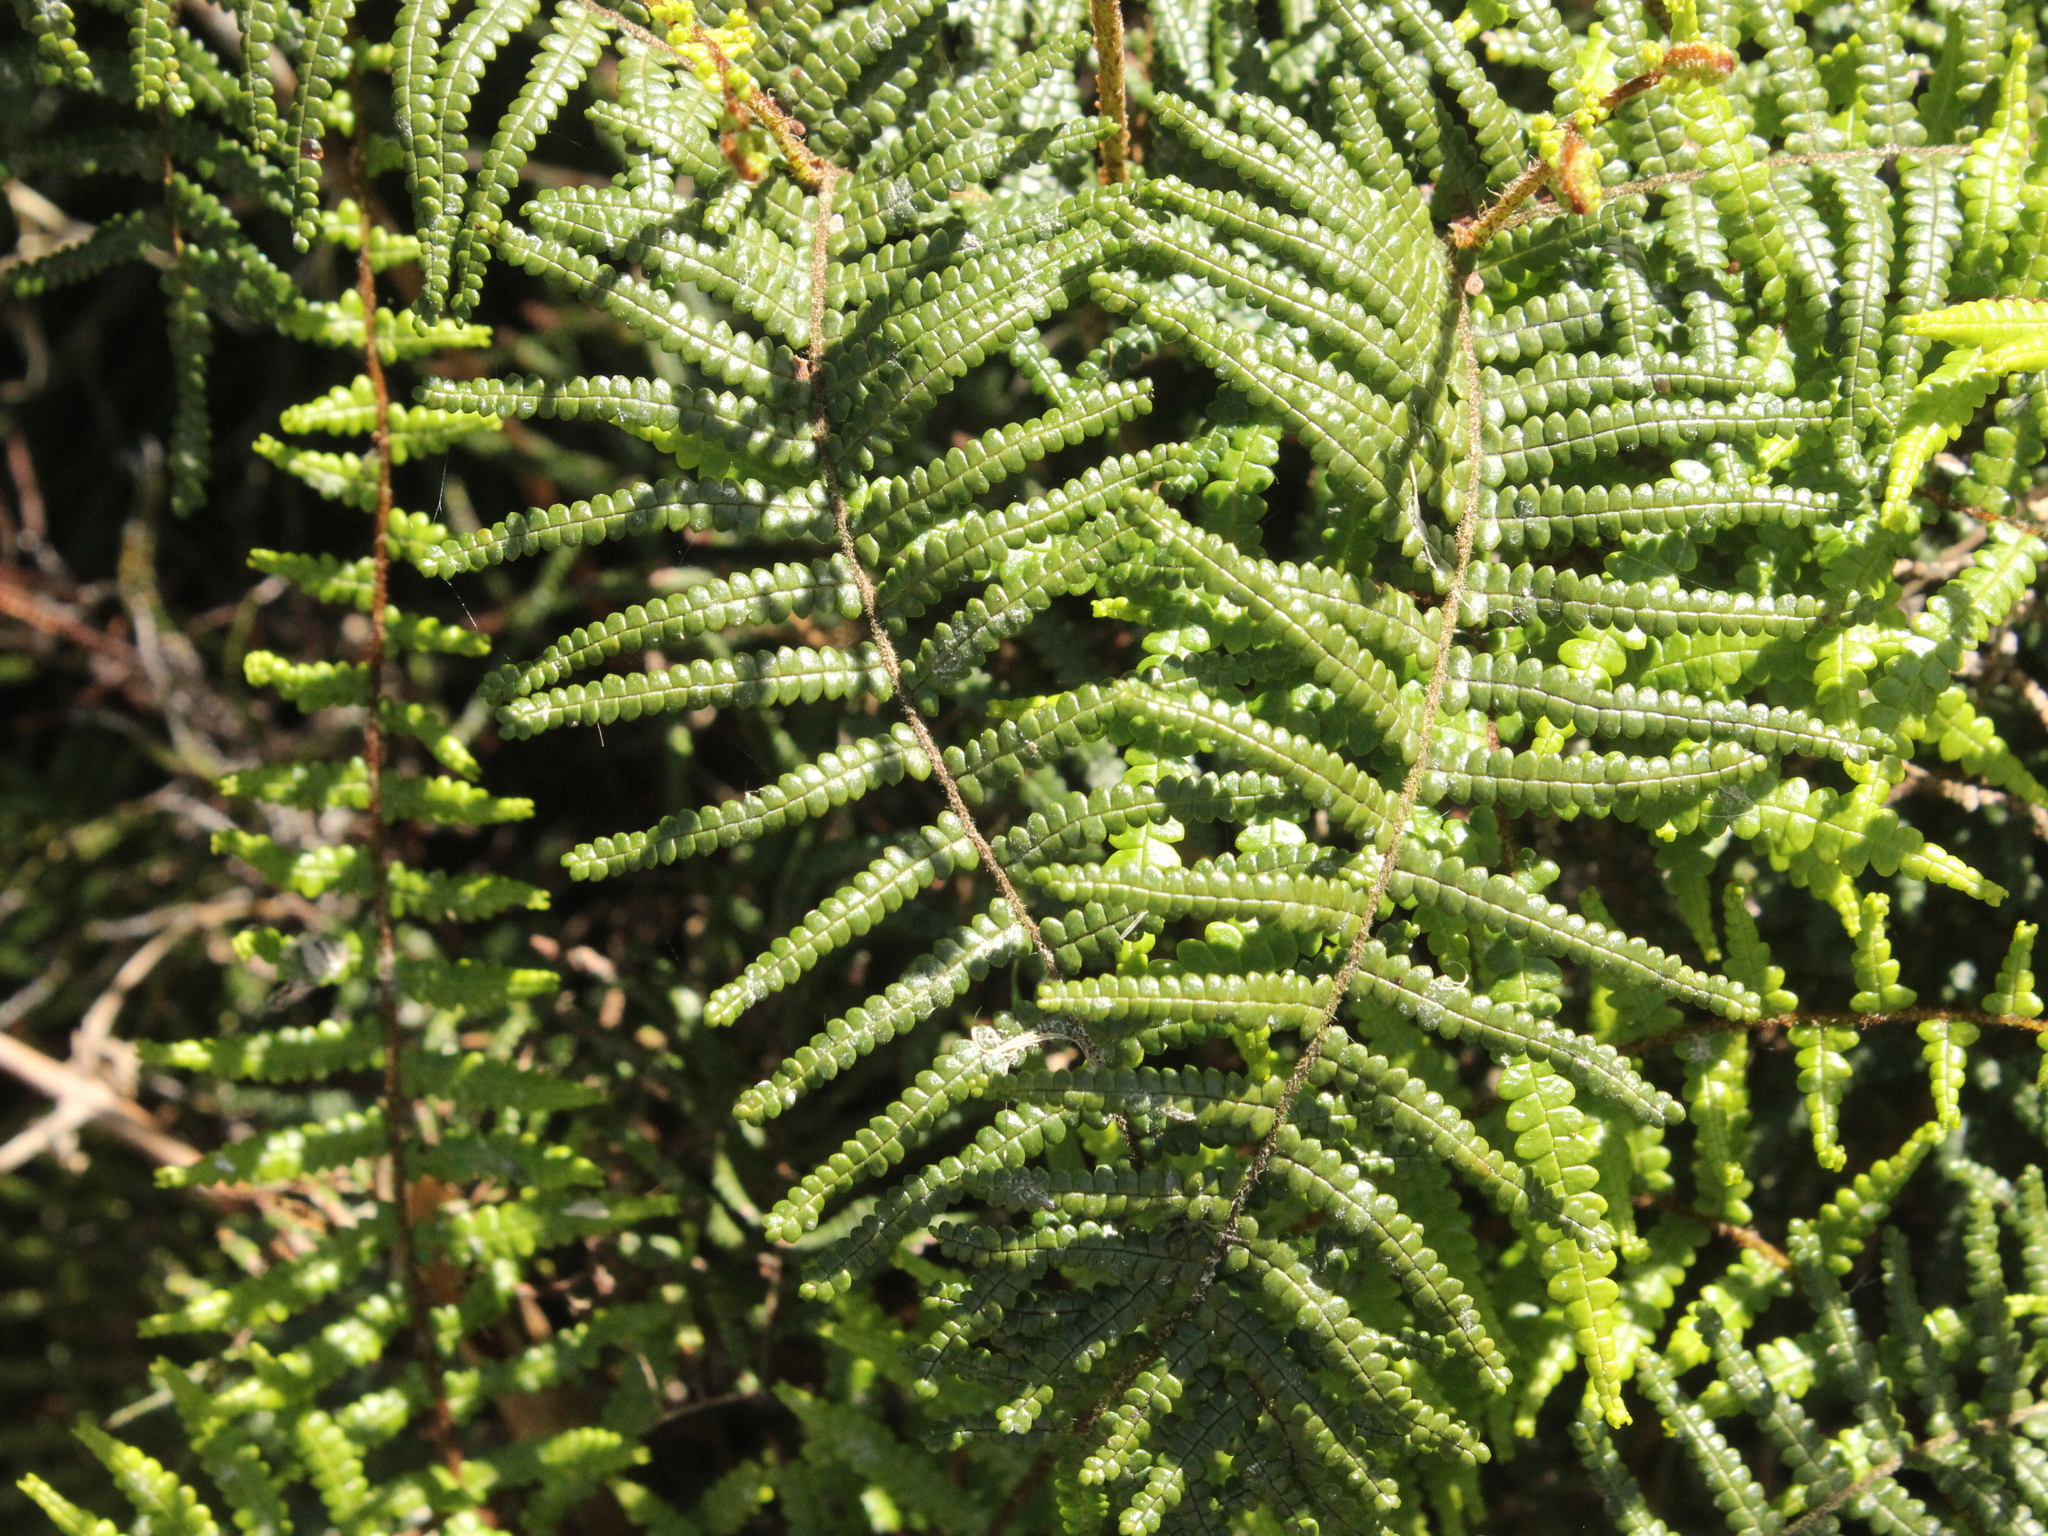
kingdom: Plantae
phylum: Tracheophyta
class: Polypodiopsida
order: Gleicheniales
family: Gleicheniaceae
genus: Gleichenia
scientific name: Gleichenia microphylla
